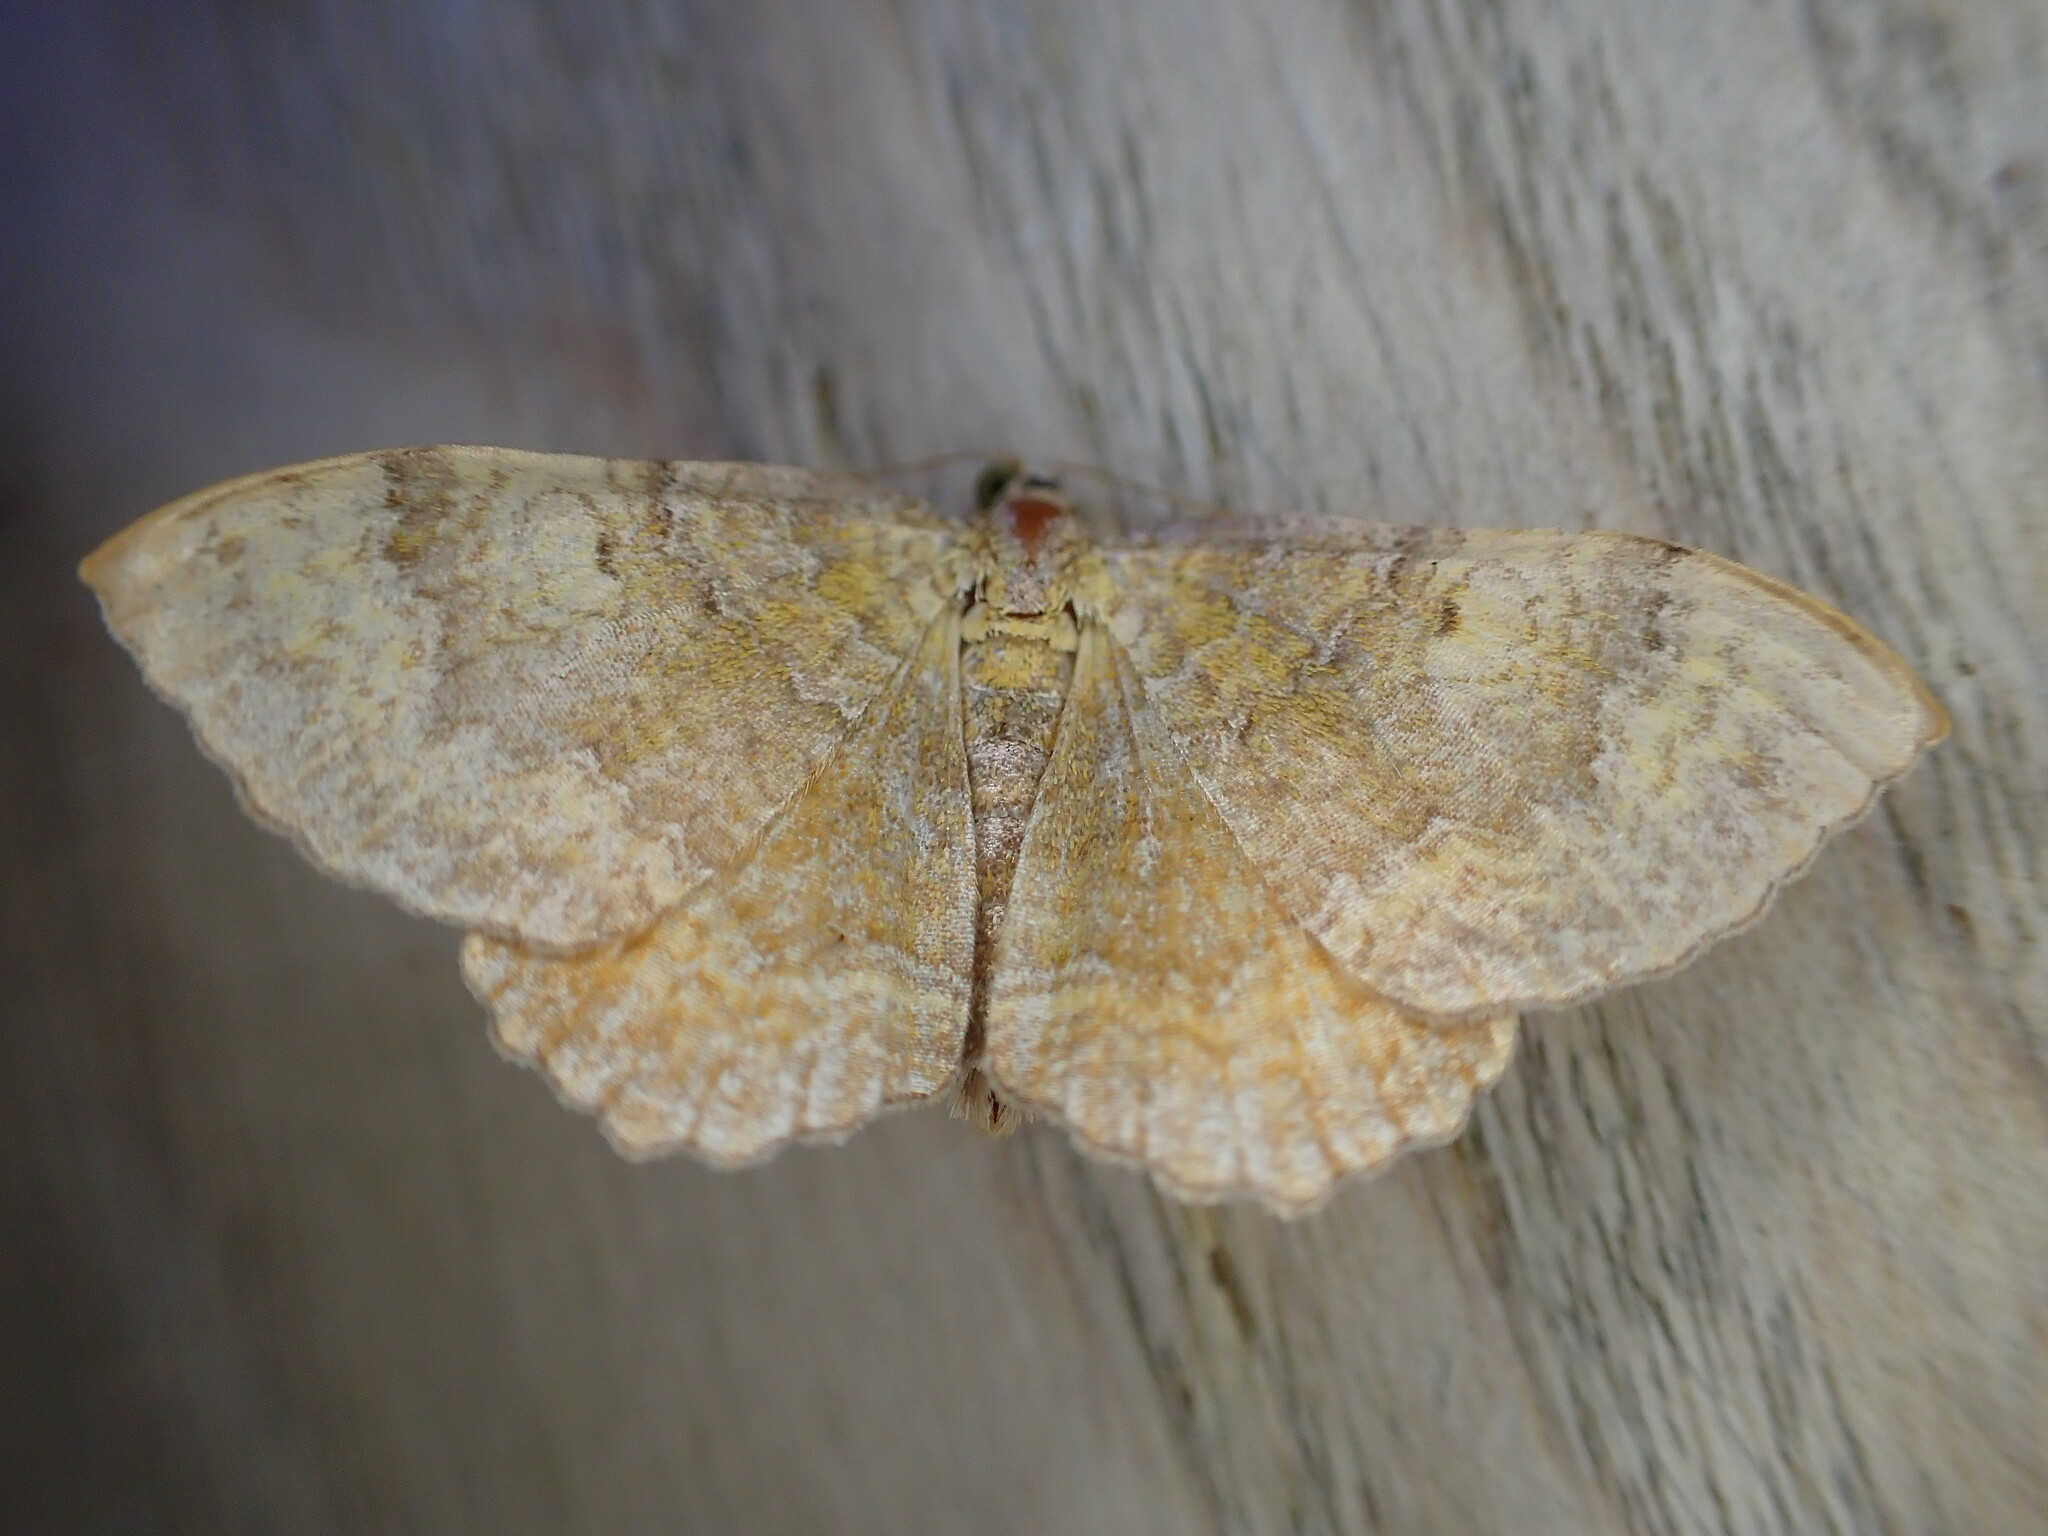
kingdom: Animalia
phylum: Arthropoda
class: Insecta
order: Lepidoptera
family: Geometridae
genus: Camptogramma
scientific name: Camptogramma bilineata
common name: Yellow shell
